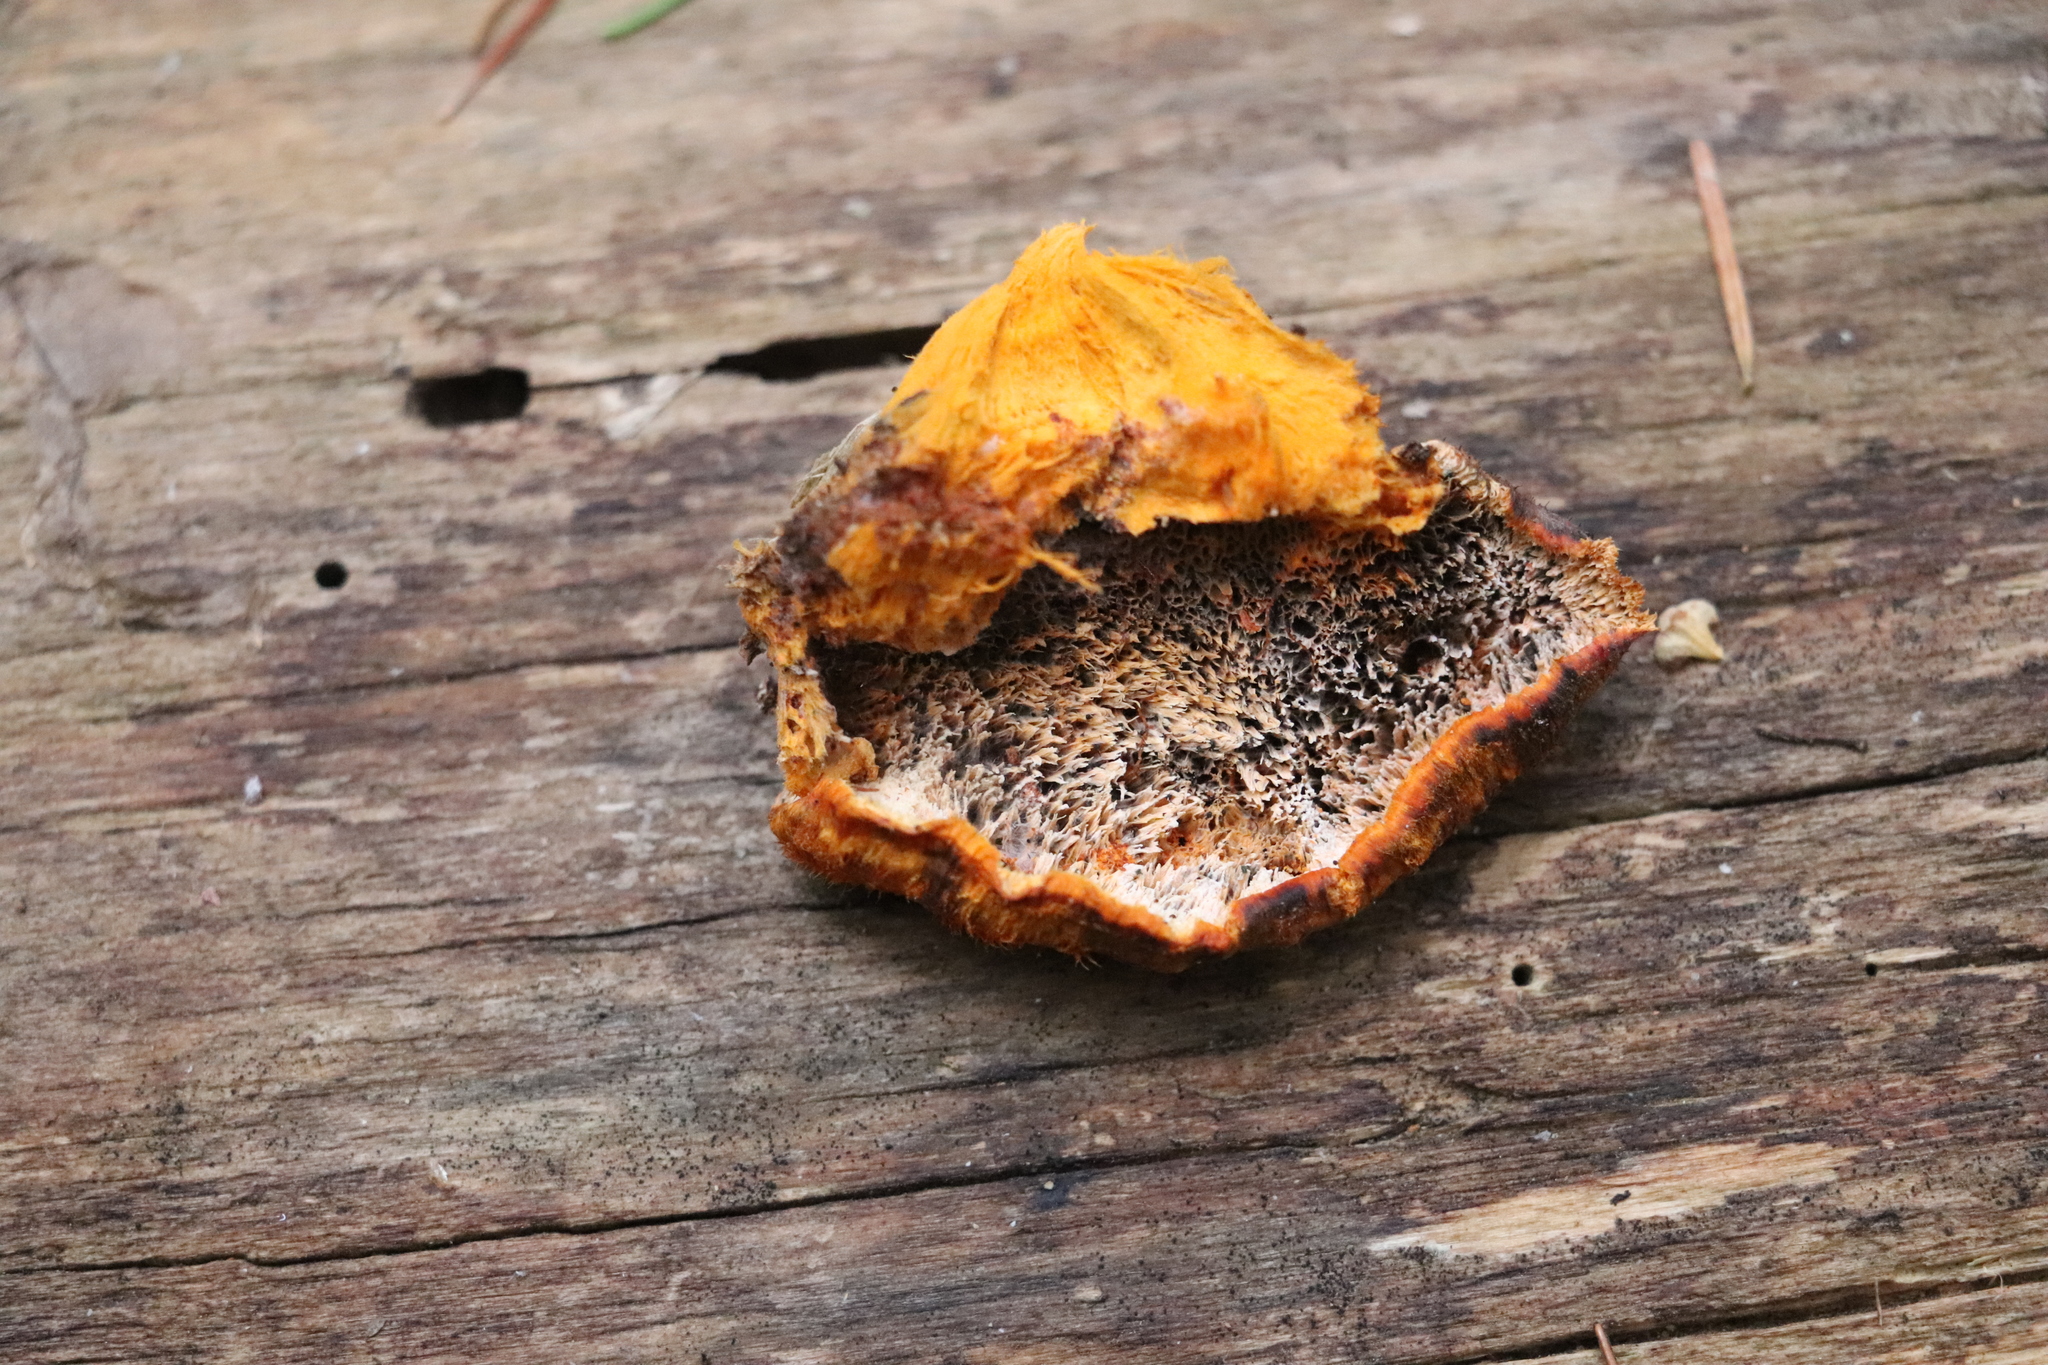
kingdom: Fungi
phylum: Basidiomycota
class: Agaricomycetes
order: Polyporales
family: Pycnoporellaceae
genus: Pycnoporellus
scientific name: Pycnoporellus fulgens
